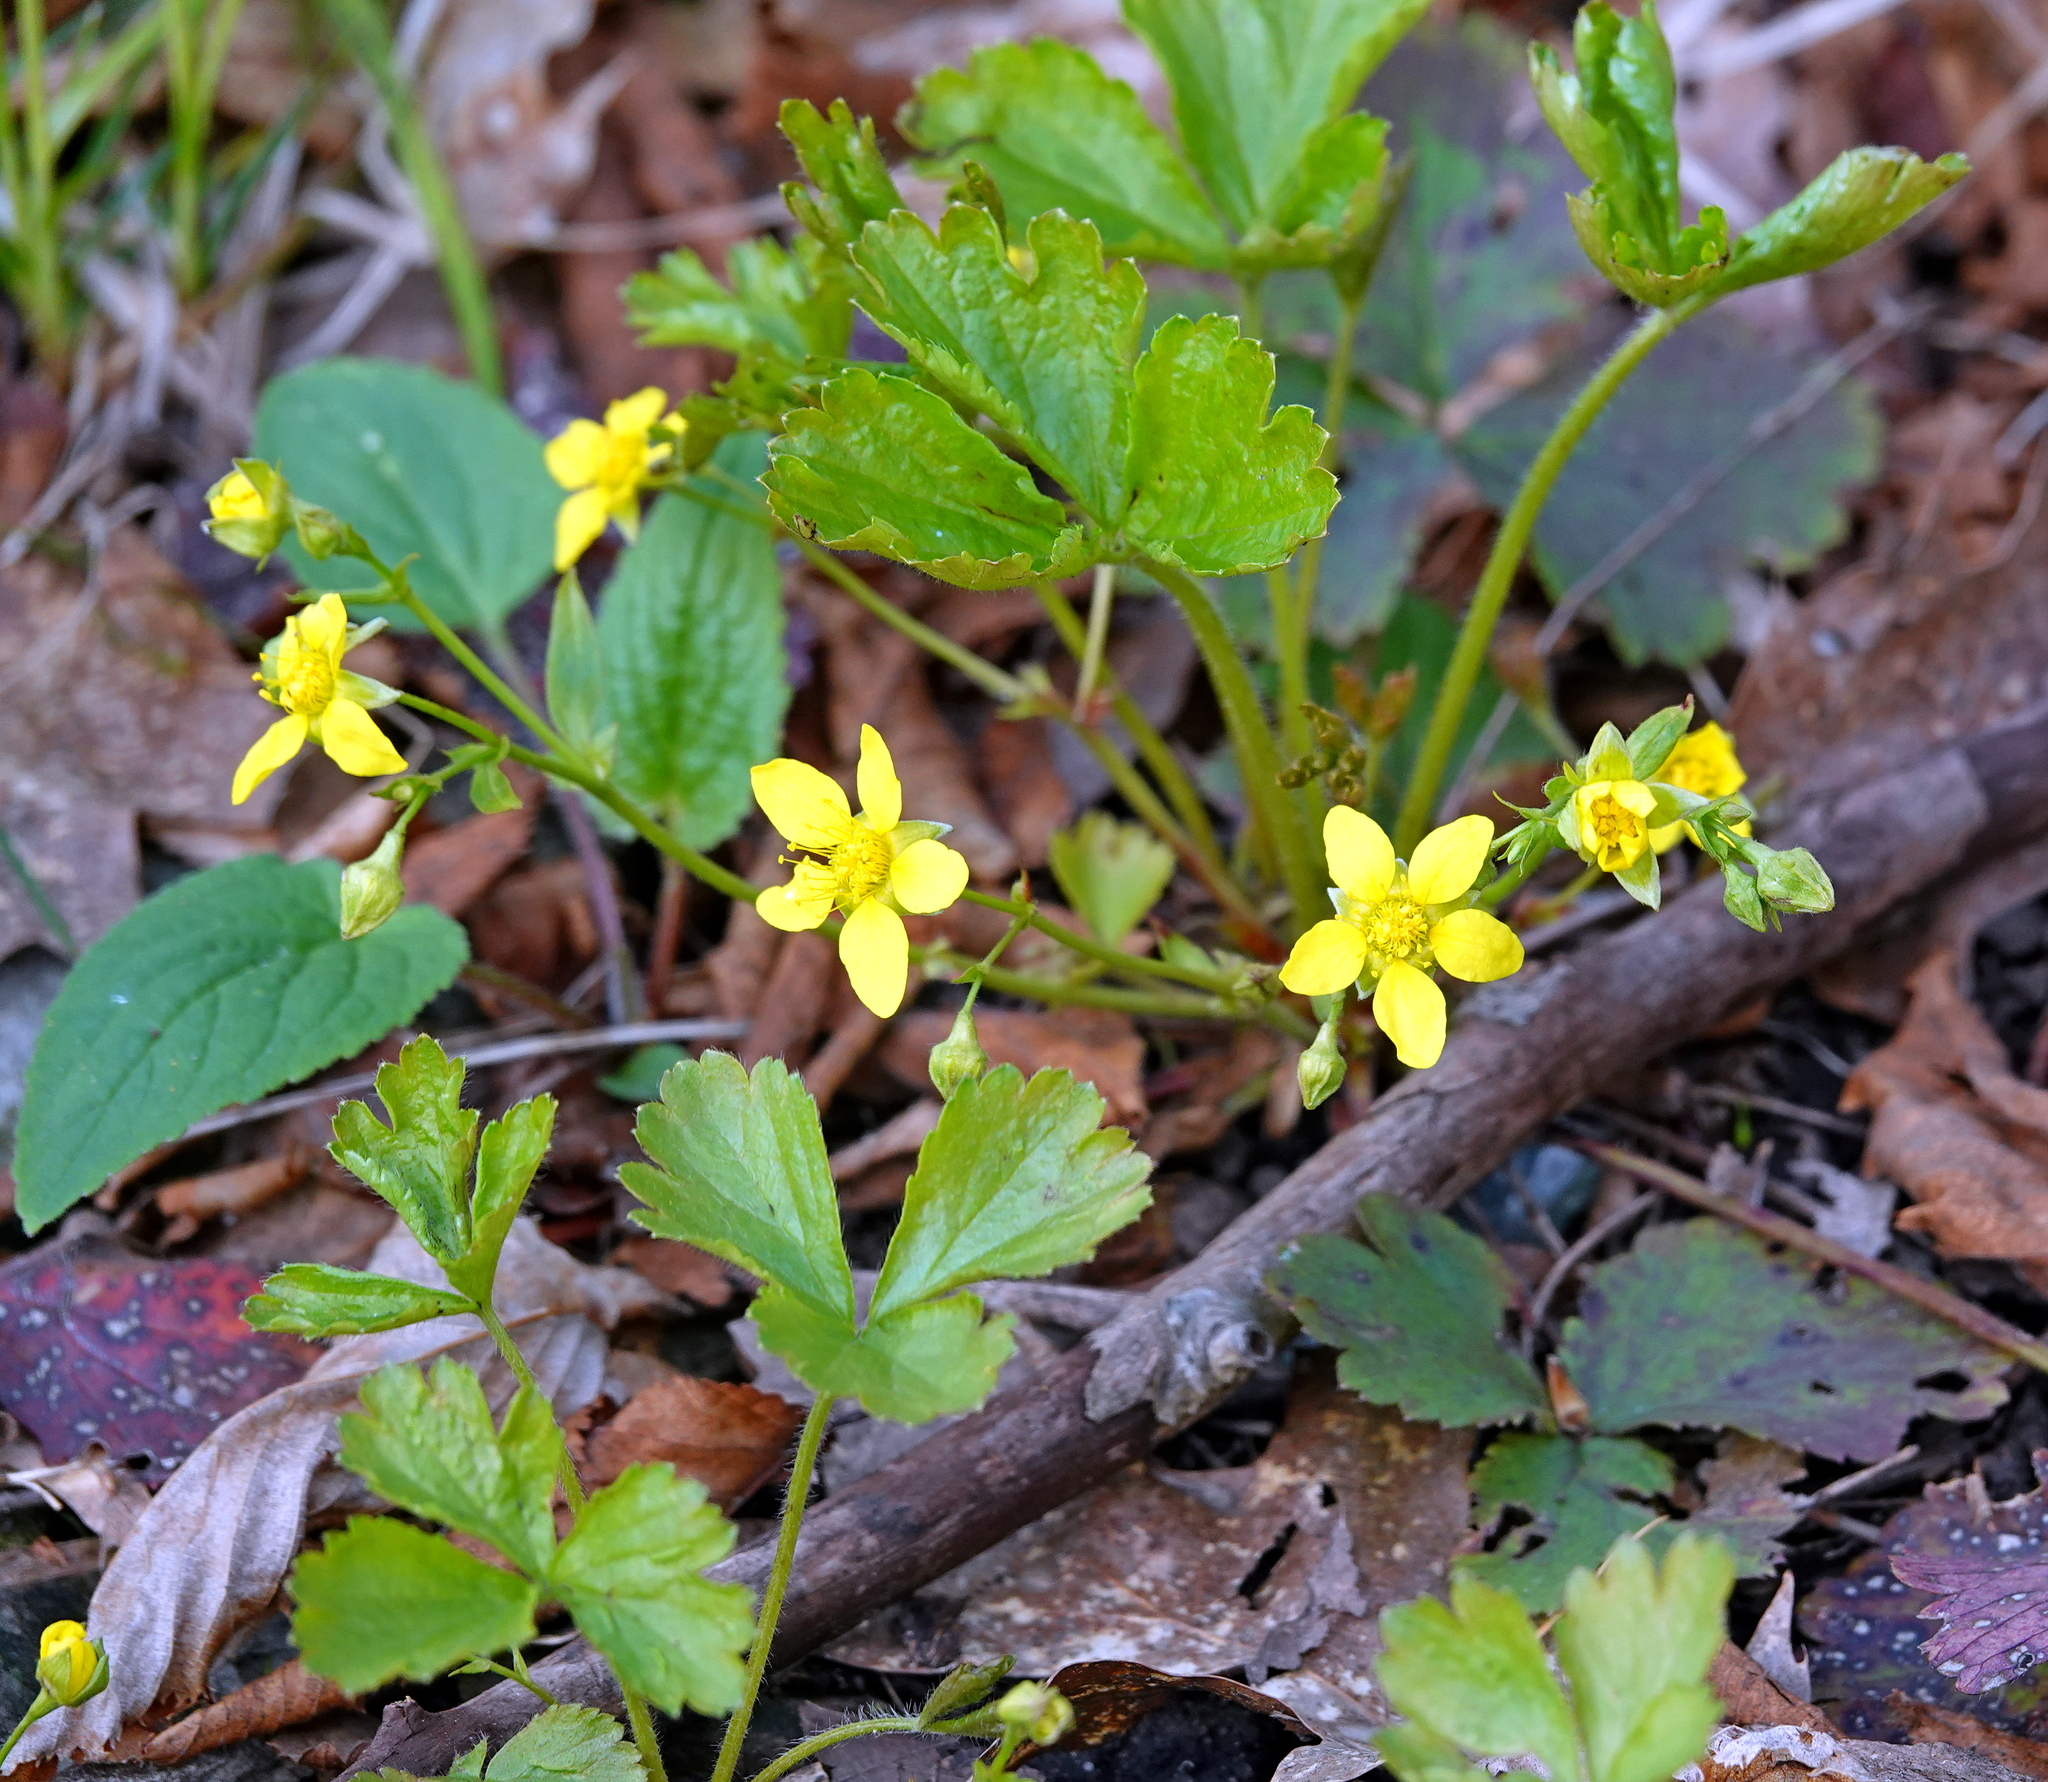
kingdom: Plantae
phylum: Tracheophyta
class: Magnoliopsida
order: Rosales
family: Rosaceae
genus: Geum
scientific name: Geum fragarioides
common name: Appalachian barren strawberry
